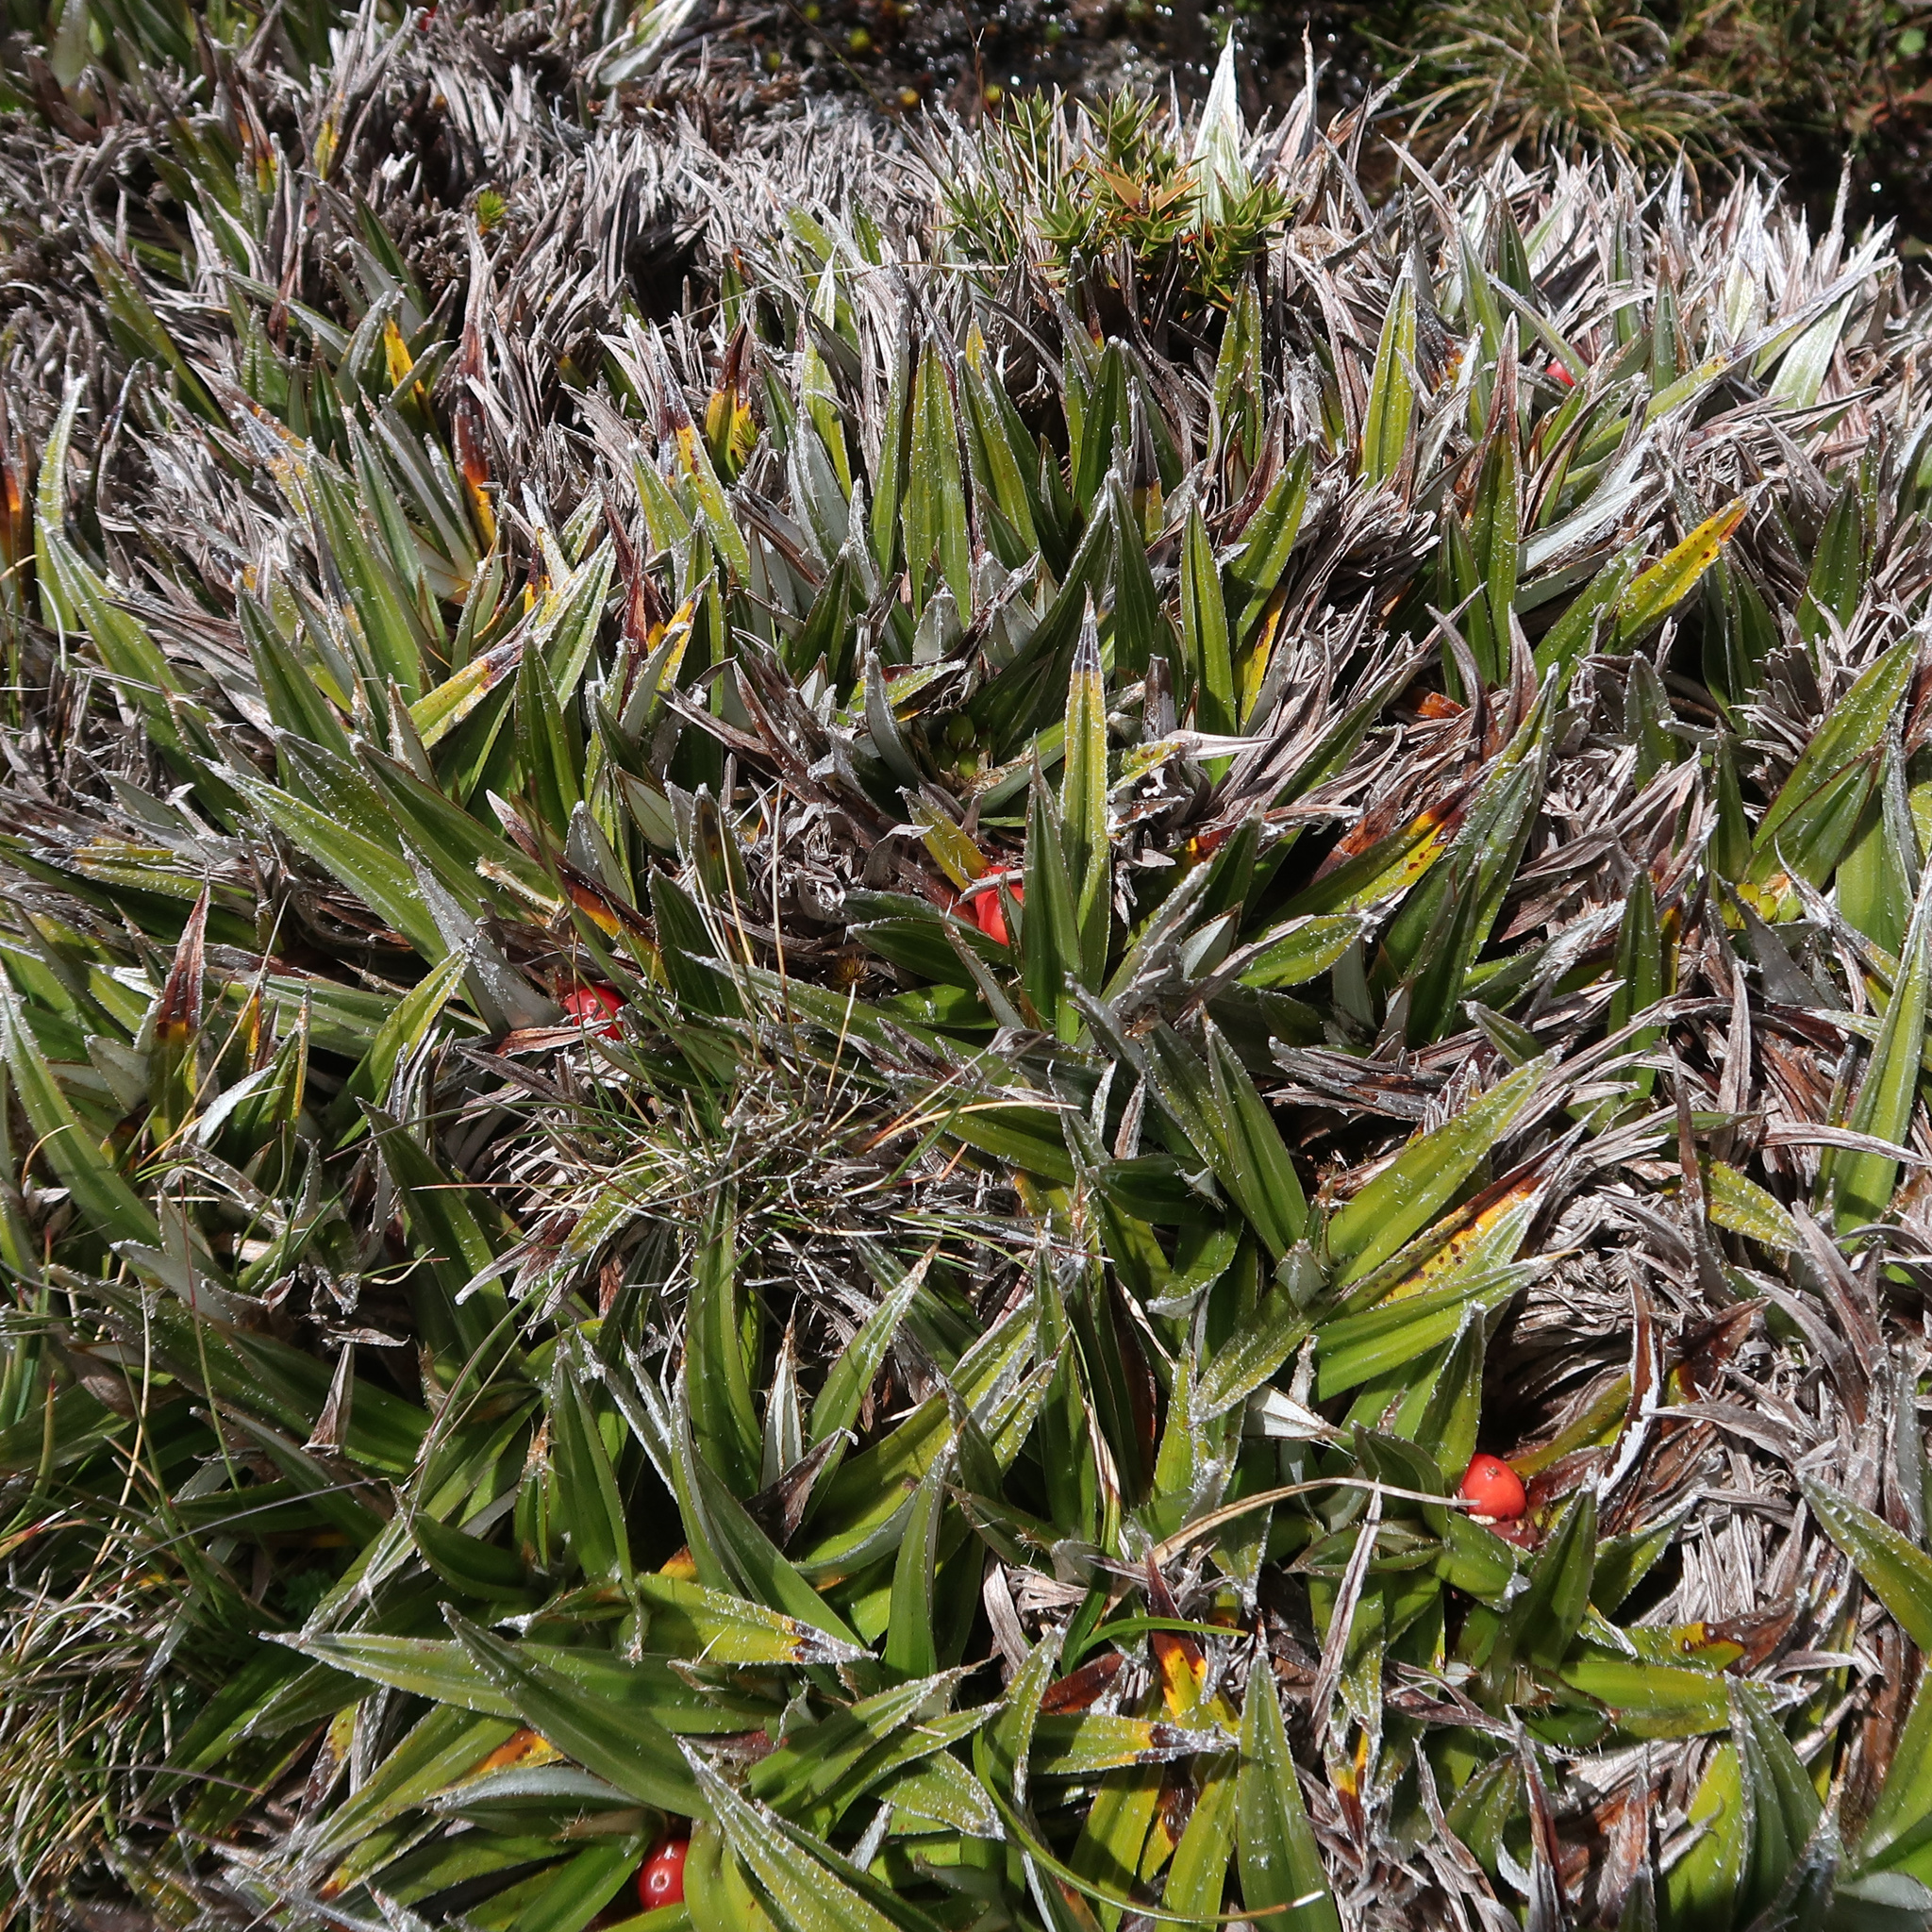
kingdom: Plantae
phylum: Tracheophyta
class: Liliopsida
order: Asparagales
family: Asteliaceae
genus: Astelia
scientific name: Astelia alpina
